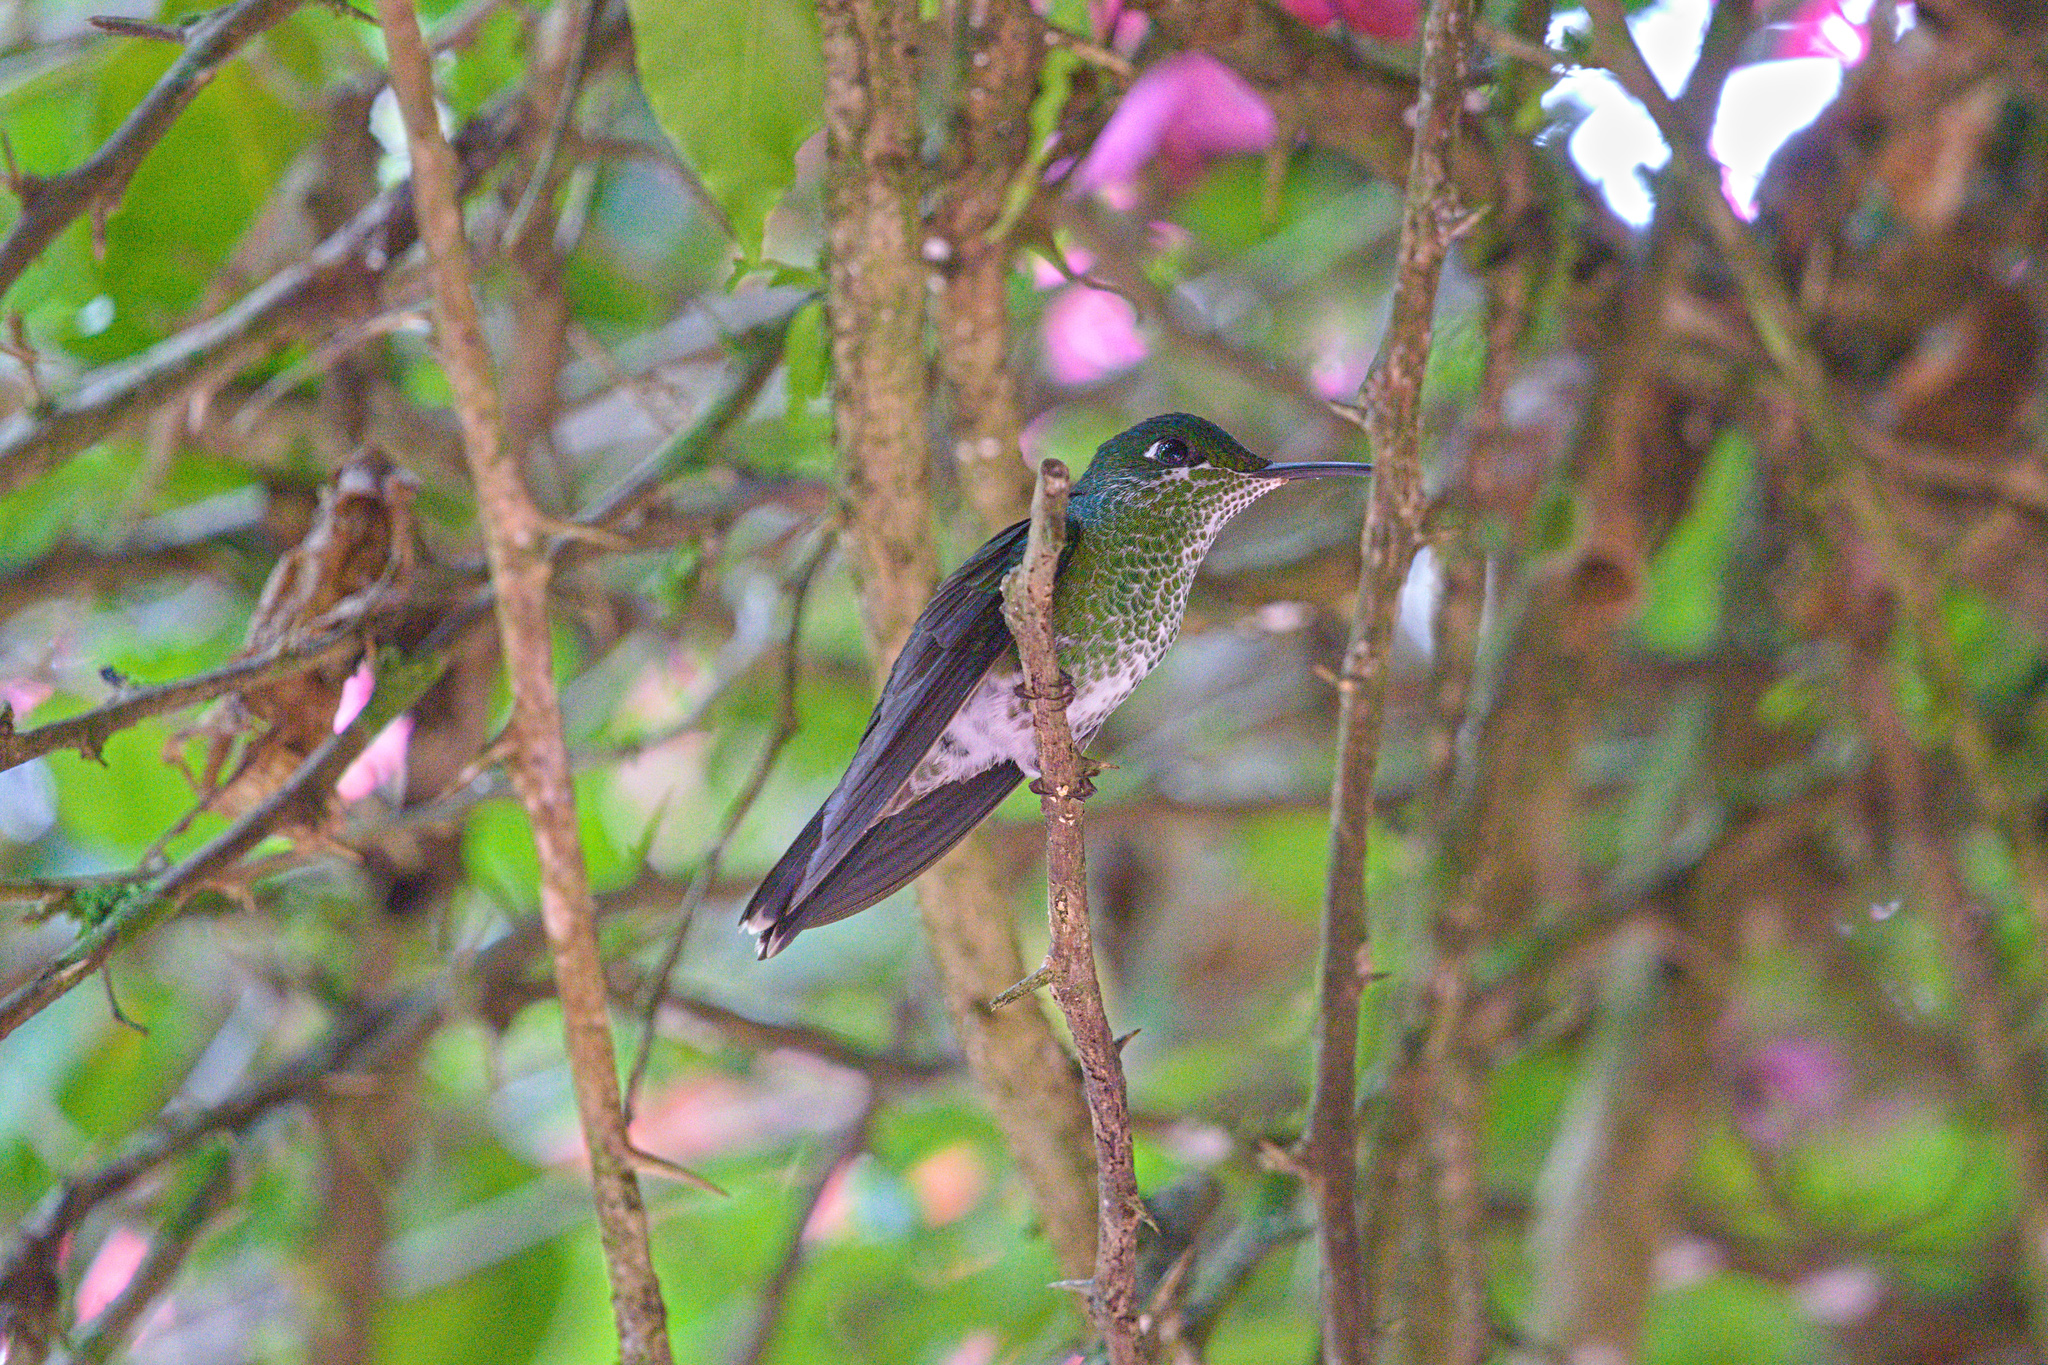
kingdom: Animalia
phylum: Chordata
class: Aves
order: Apodiformes
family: Trochilidae
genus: Heliodoxa
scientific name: Heliodoxa jacula
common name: Green-crowned brilliant
